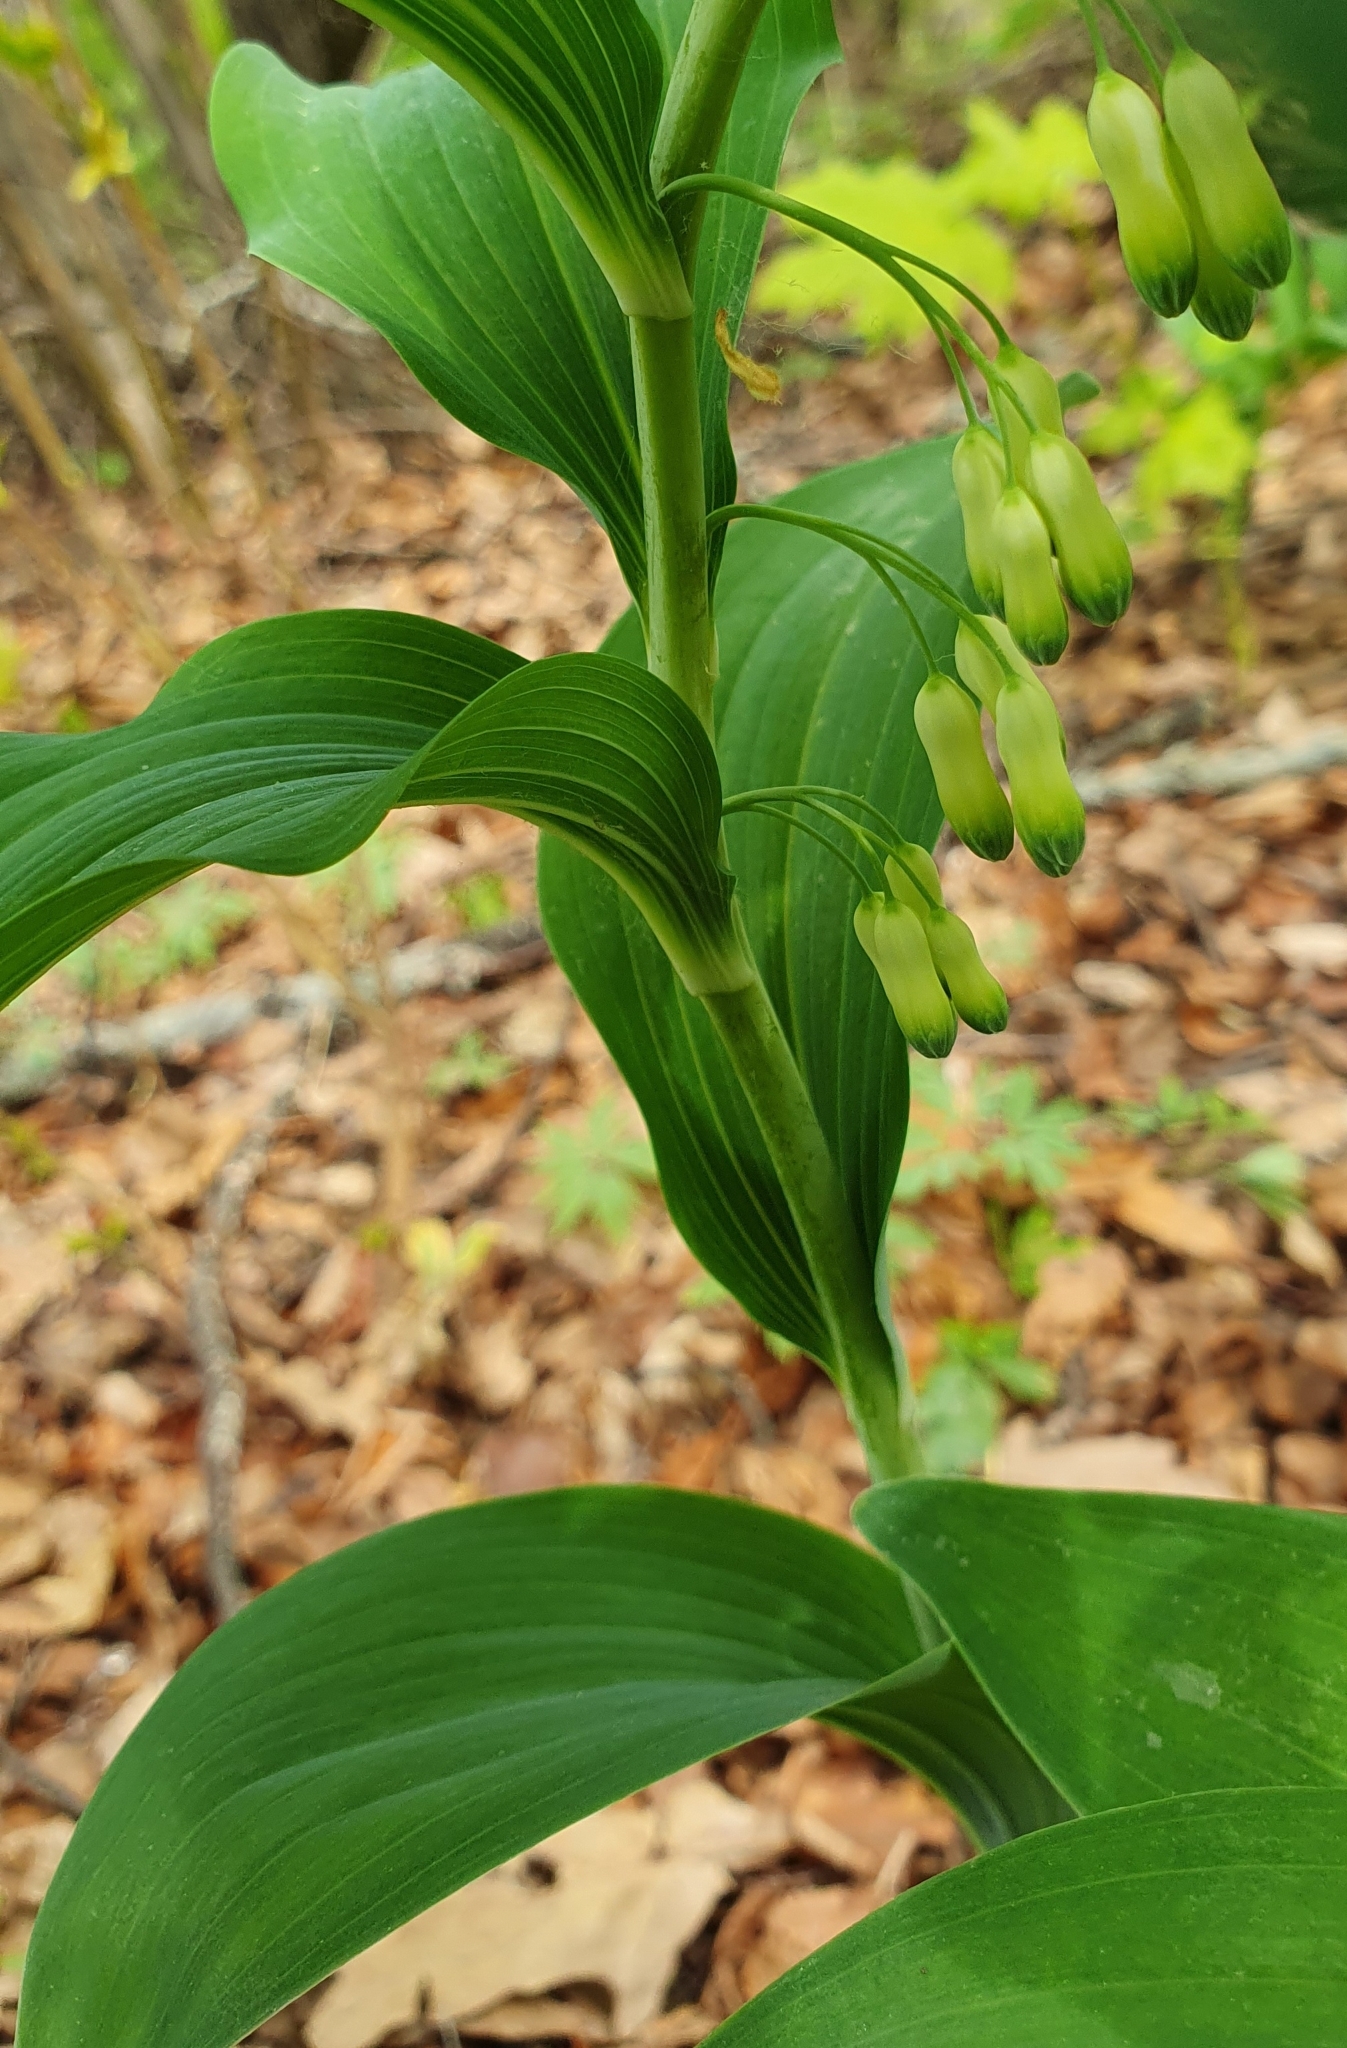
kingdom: Plantae
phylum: Tracheophyta
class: Liliopsida
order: Asparagales
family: Asparagaceae
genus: Polygonatum
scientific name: Polygonatum multiflorum
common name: Solomon's-seal
